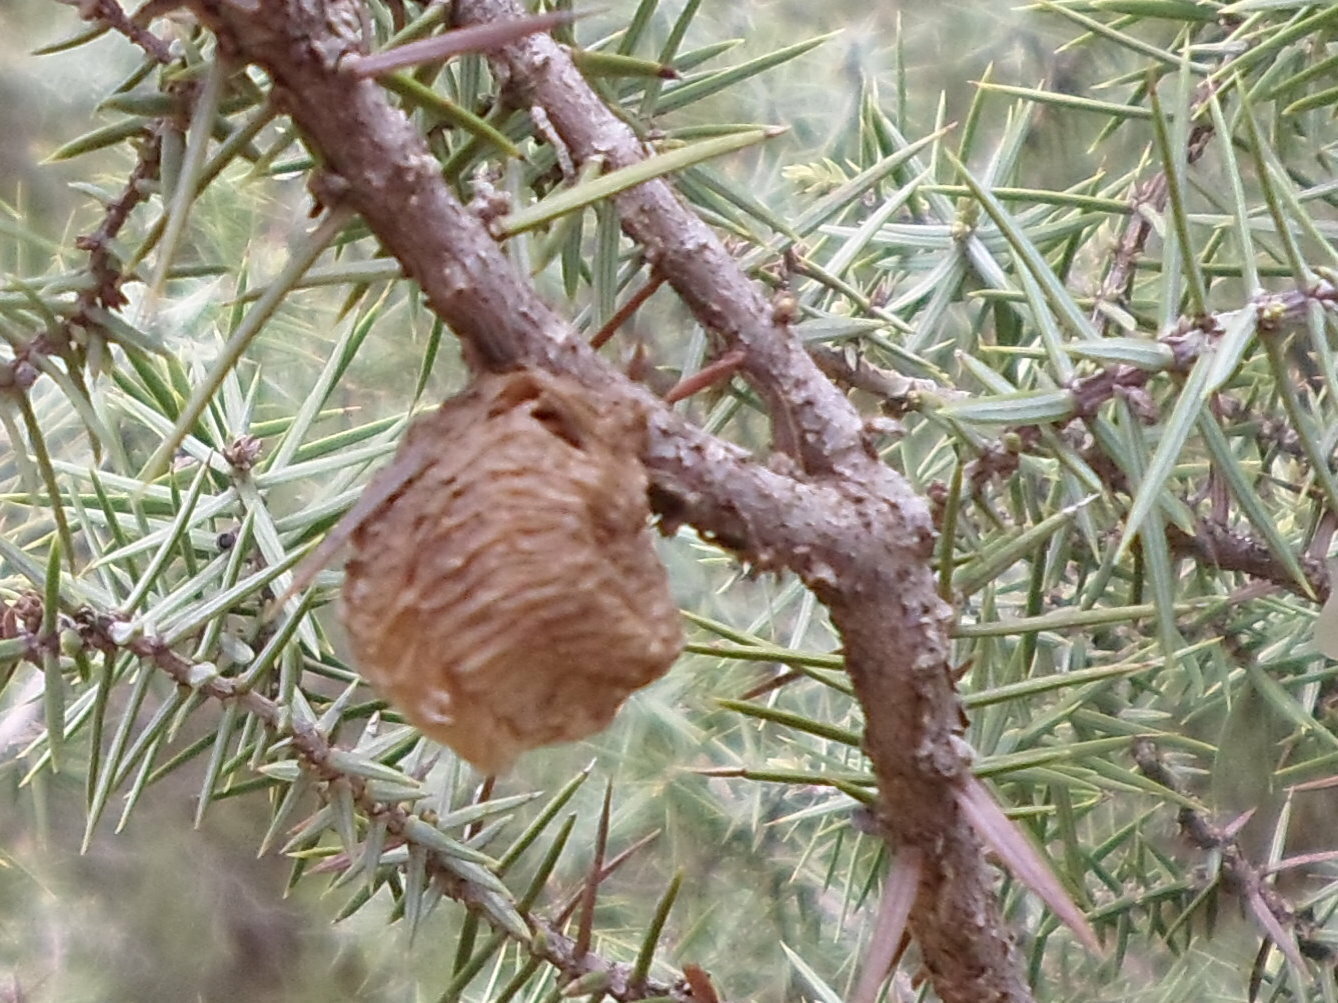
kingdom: Animalia
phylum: Arthropoda
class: Insecta
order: Mantodea
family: Mantidae
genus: Sphodromantis
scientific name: Sphodromantis viridis
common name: Giant african mantis
